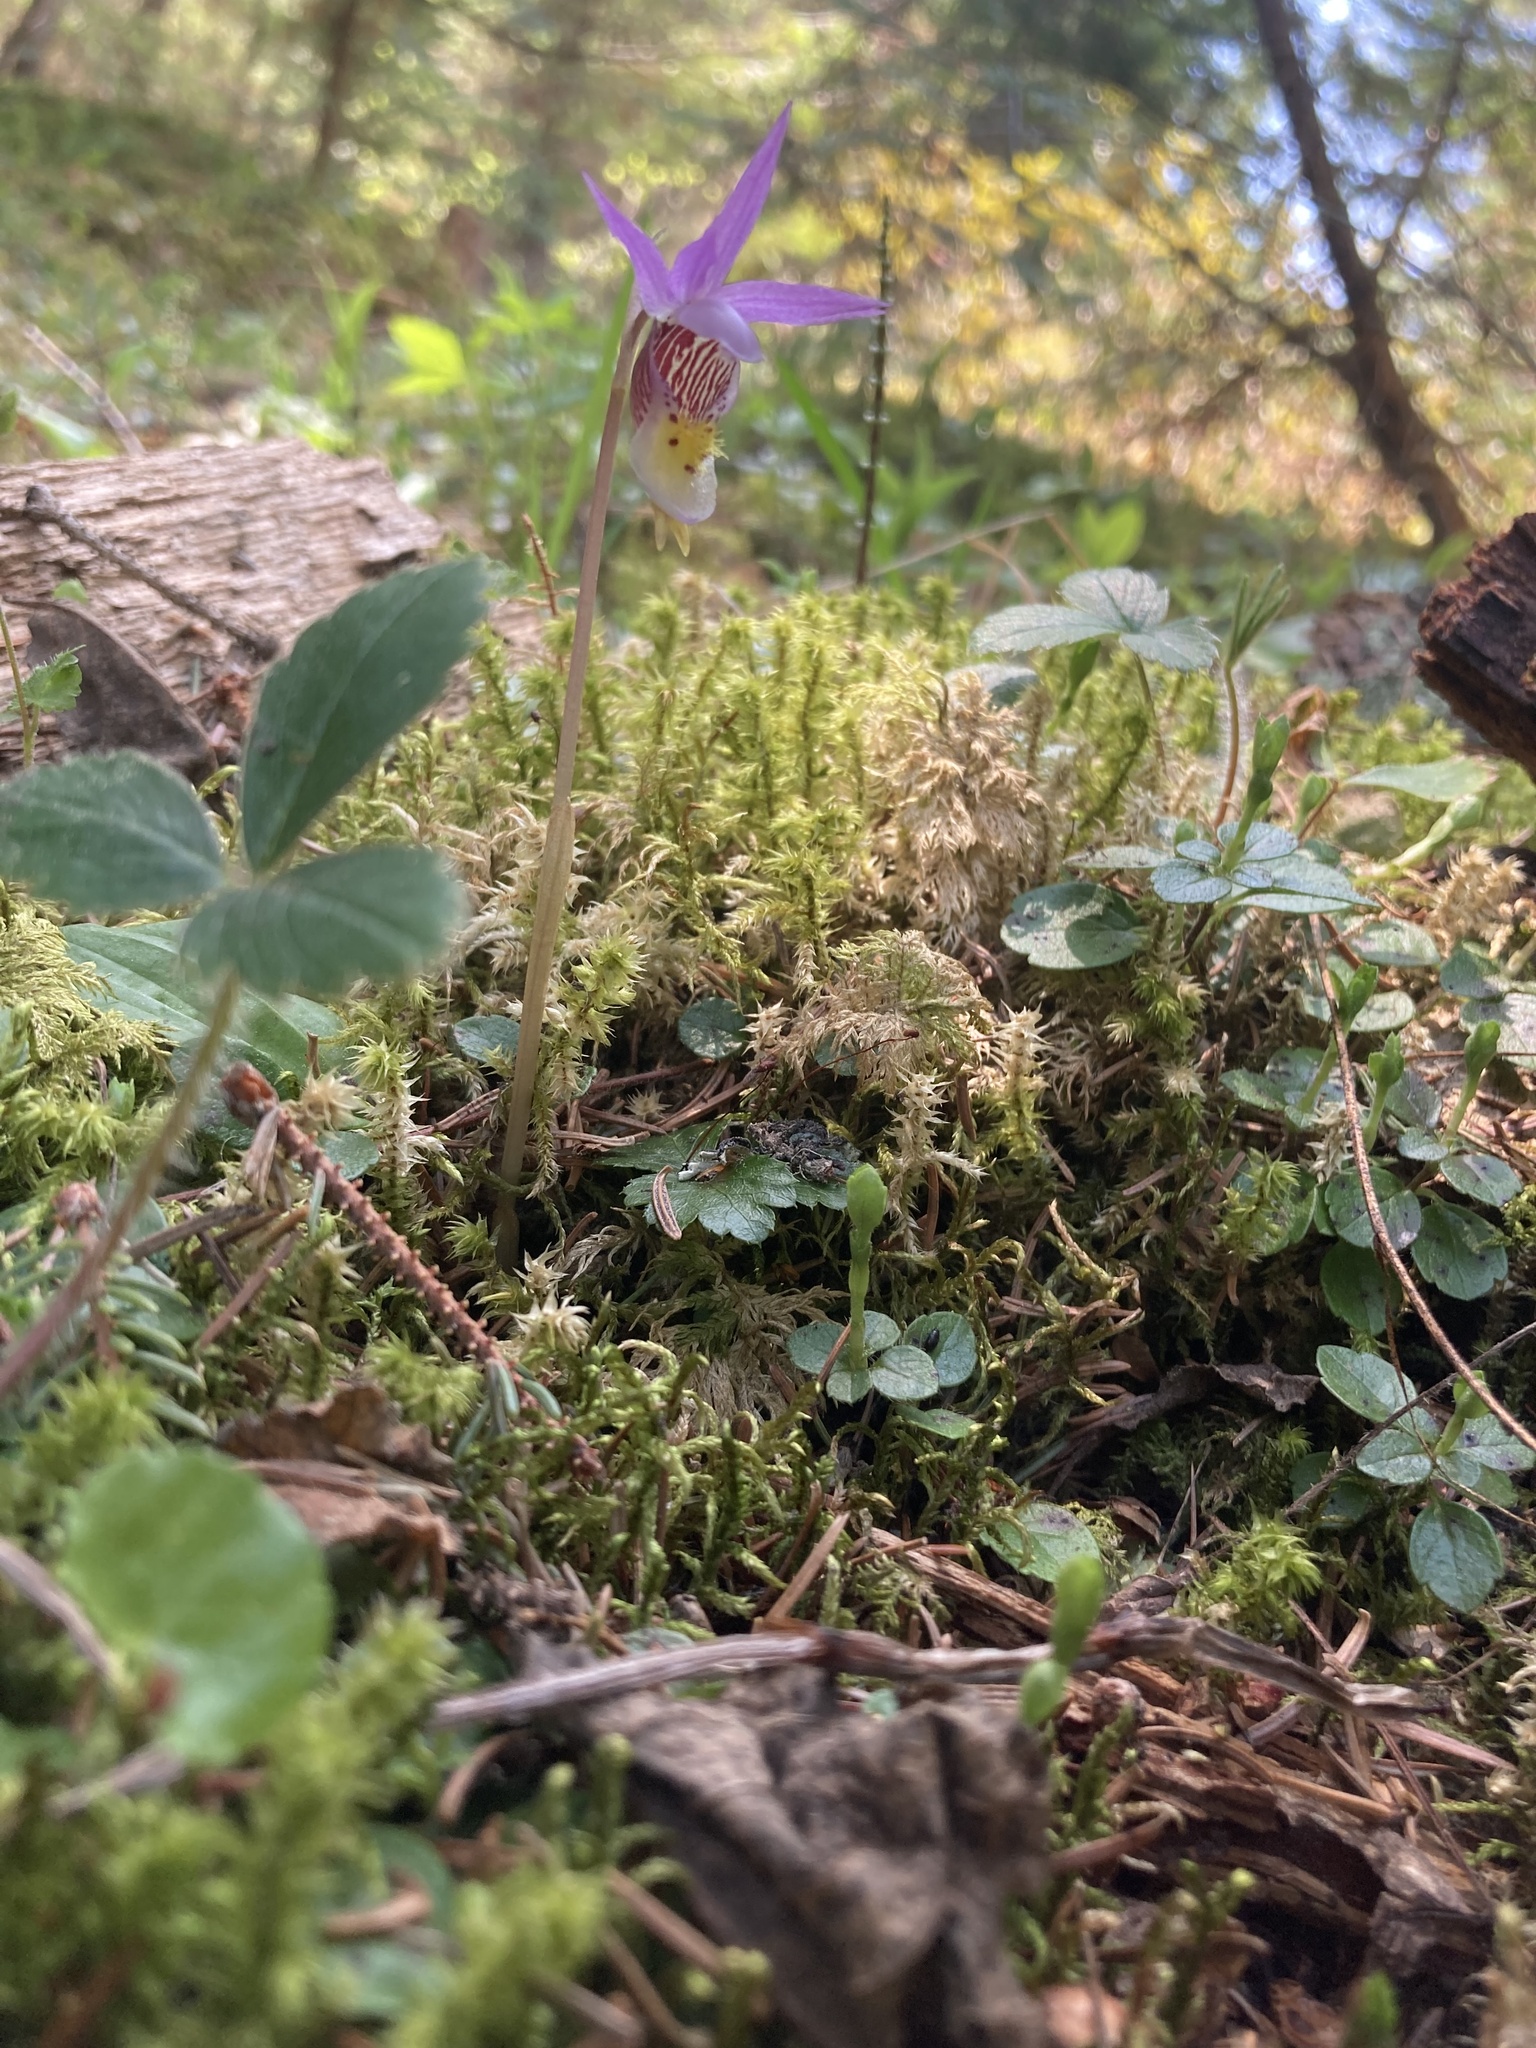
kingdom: Plantae
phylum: Tracheophyta
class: Liliopsida
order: Asparagales
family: Orchidaceae
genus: Calypso
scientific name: Calypso bulbosa
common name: Calypso
